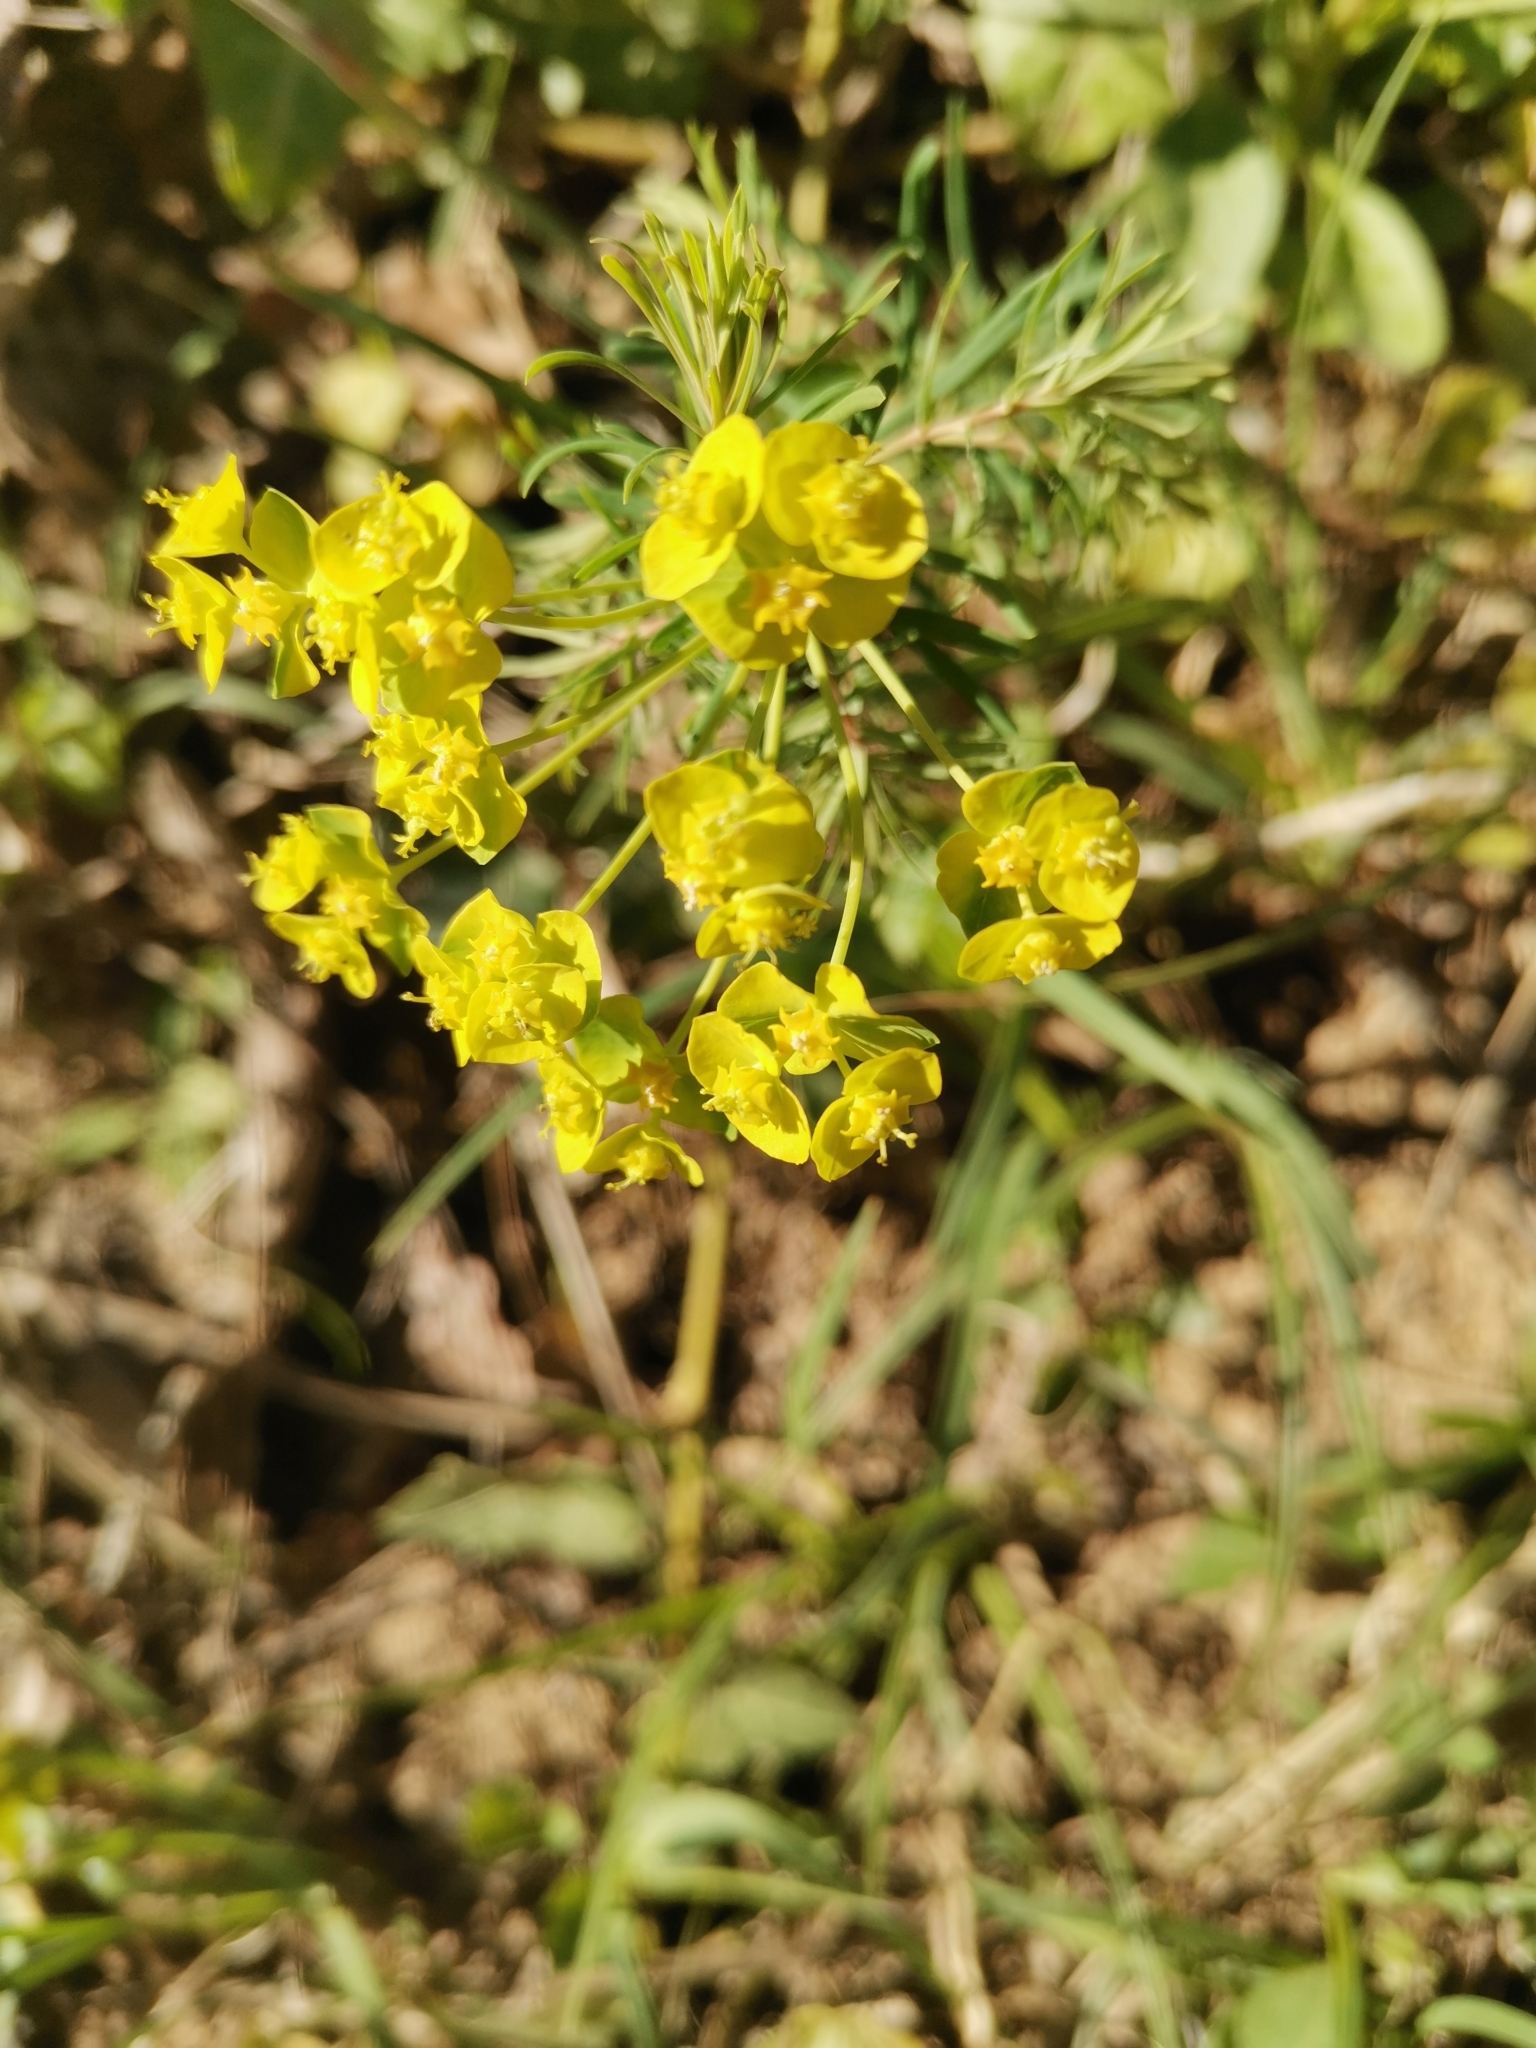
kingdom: Plantae
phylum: Tracheophyta
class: Magnoliopsida
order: Malpighiales
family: Euphorbiaceae
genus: Euphorbia
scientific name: Euphorbia cyparissias
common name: Cypress spurge
